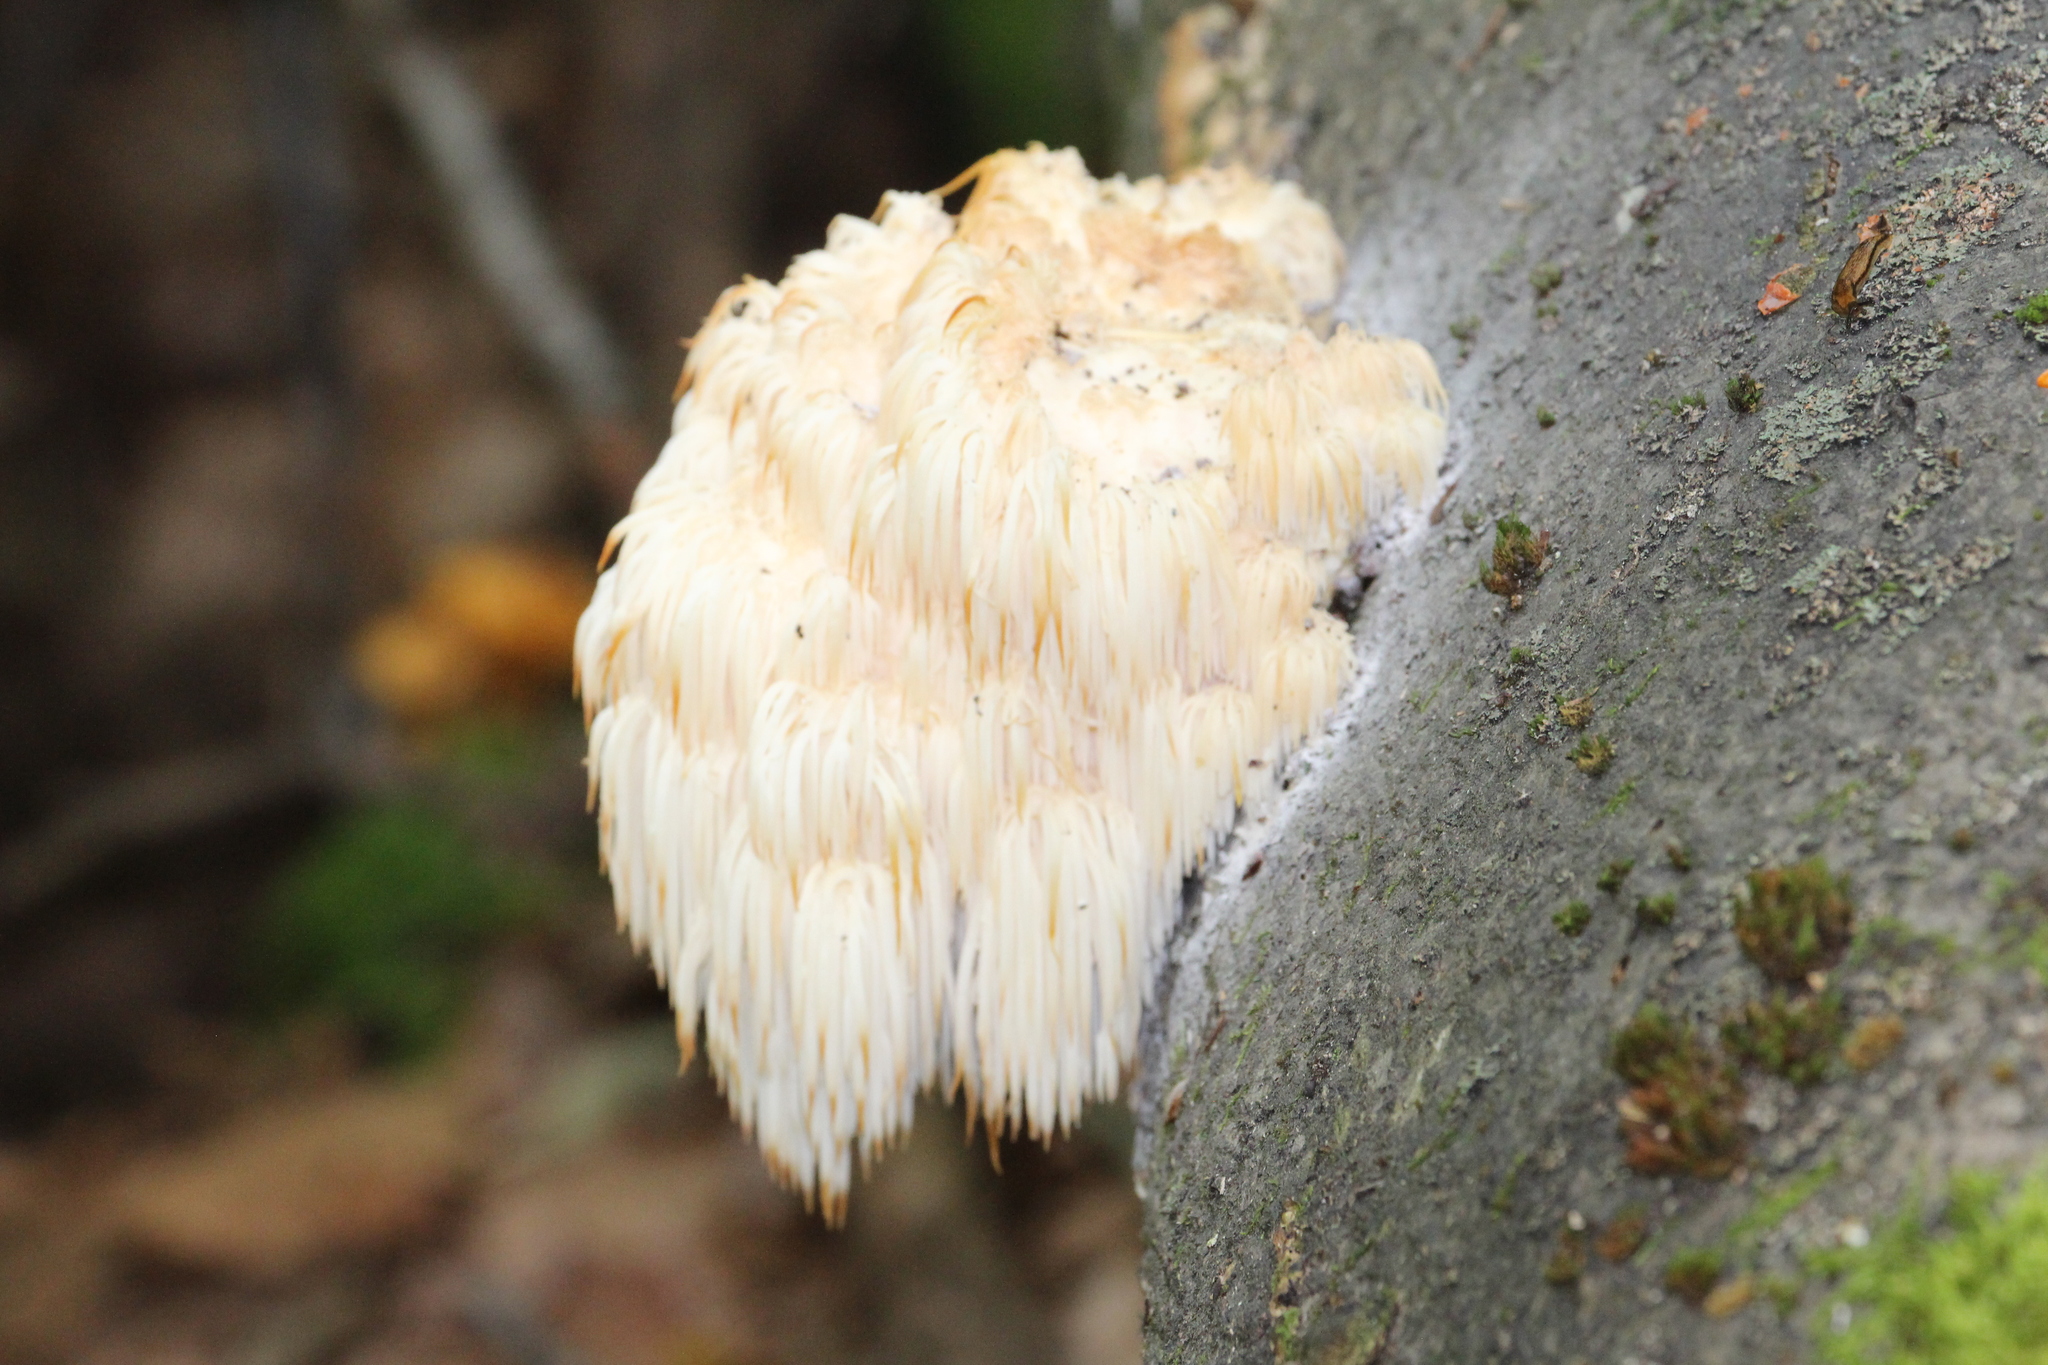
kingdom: Fungi
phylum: Basidiomycota
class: Agaricomycetes
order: Russulales
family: Hericiaceae
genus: Hericium
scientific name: Hericium americanum
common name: Bear's head tooth
